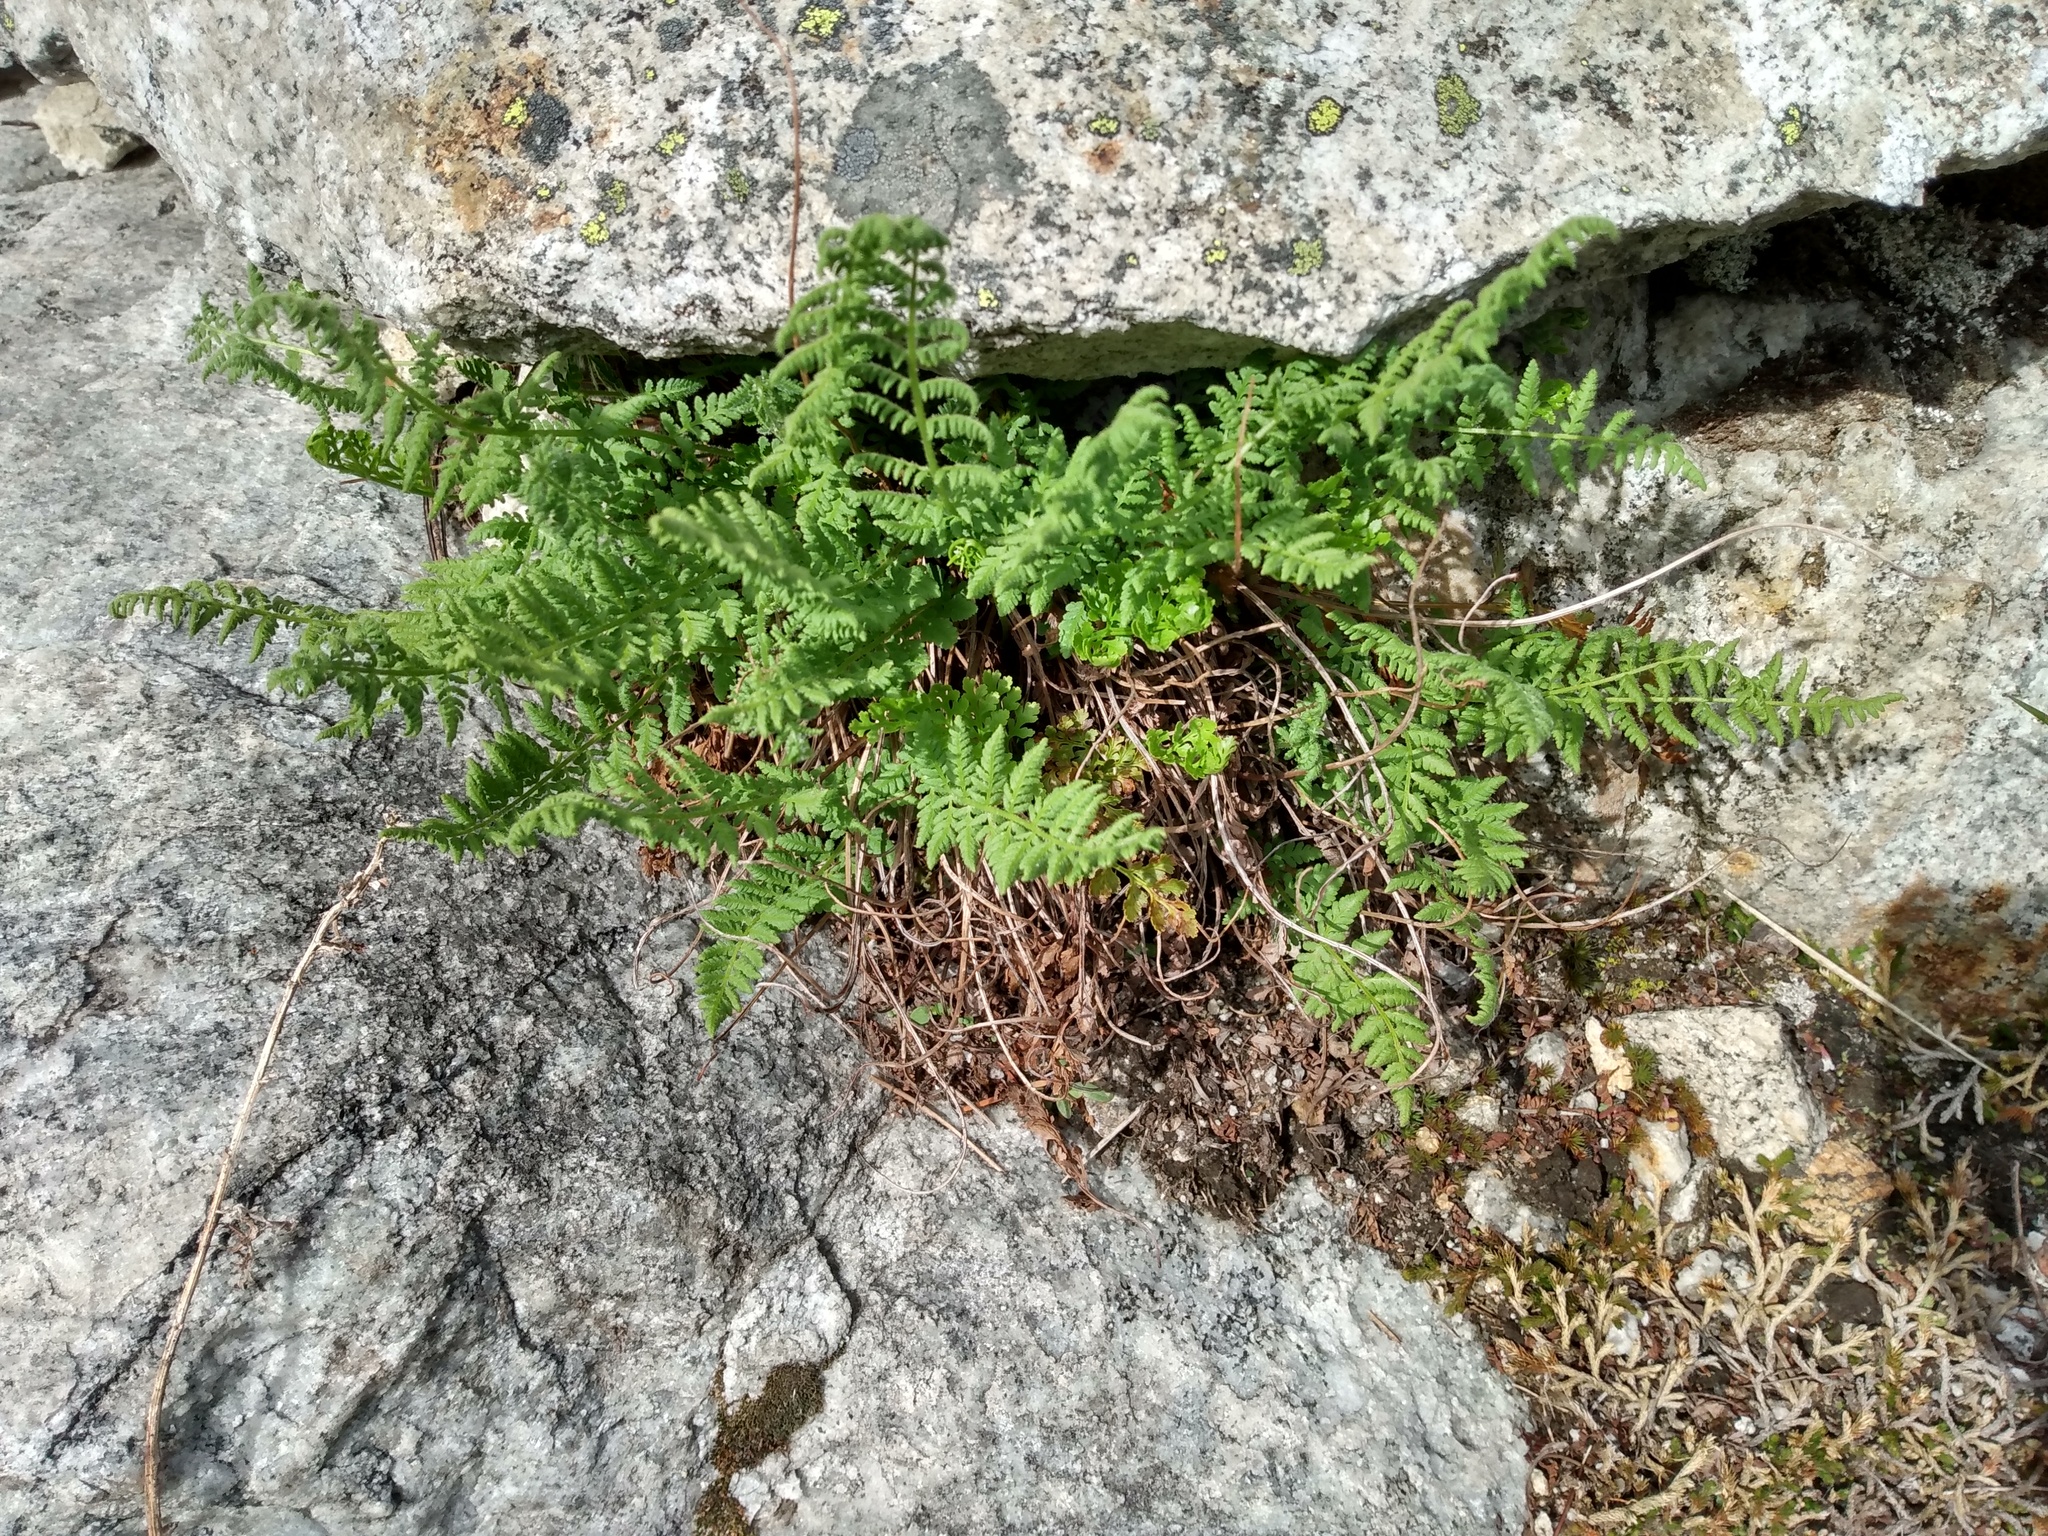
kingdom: Plantae
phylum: Tracheophyta
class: Polypodiopsida
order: Polypodiales
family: Woodsiaceae
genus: Physematium
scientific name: Physematium scopulinum
